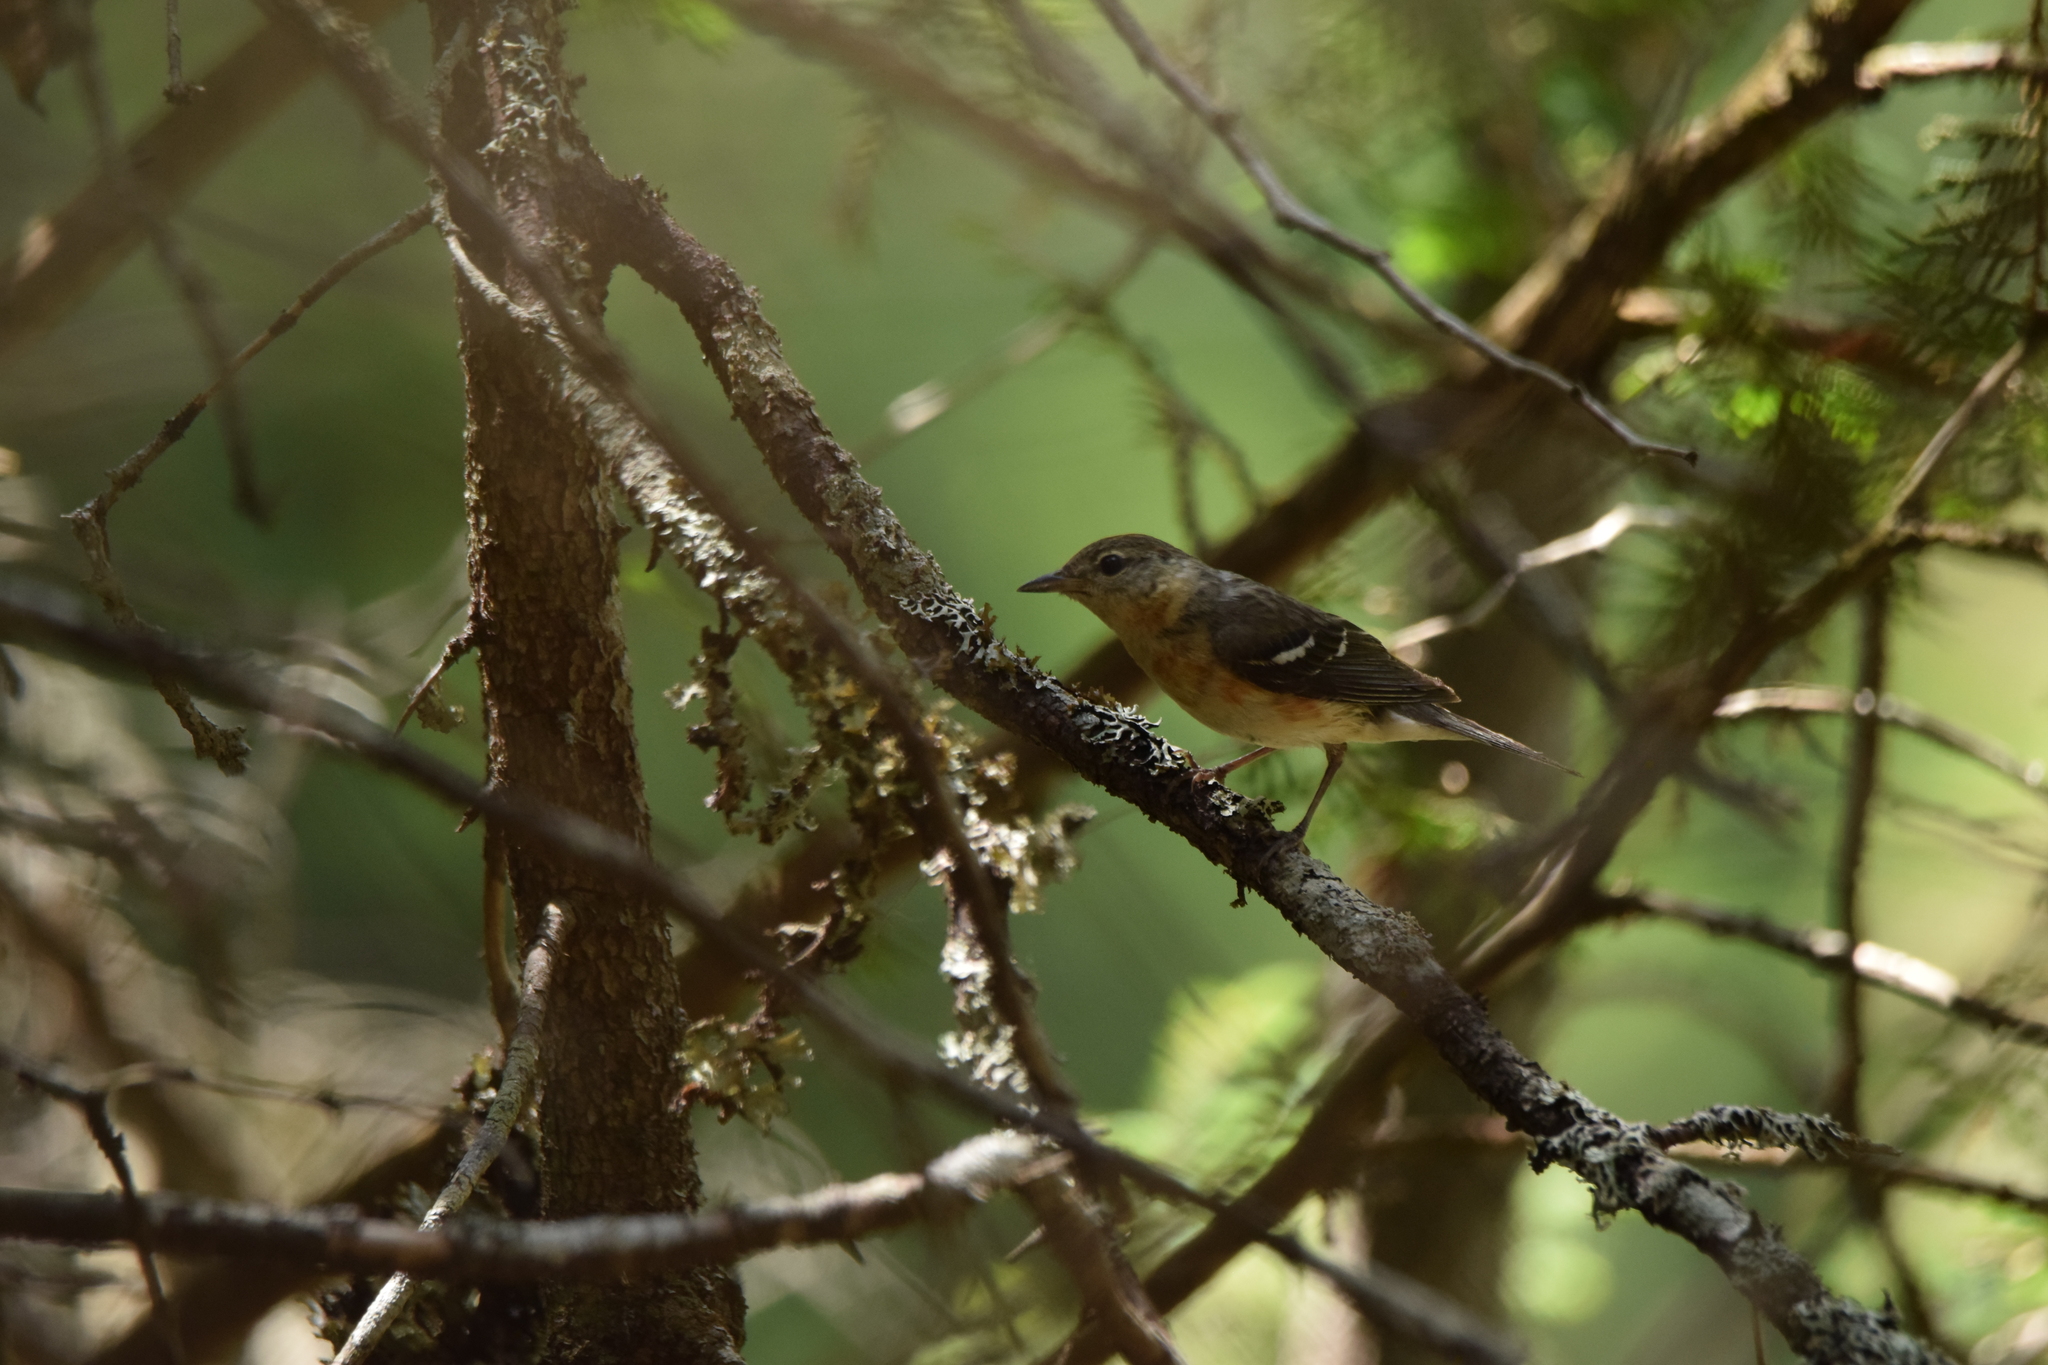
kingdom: Animalia
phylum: Chordata
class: Aves
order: Passeriformes
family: Parulidae
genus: Setophaga
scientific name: Setophaga castanea
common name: Bay-breasted warbler
